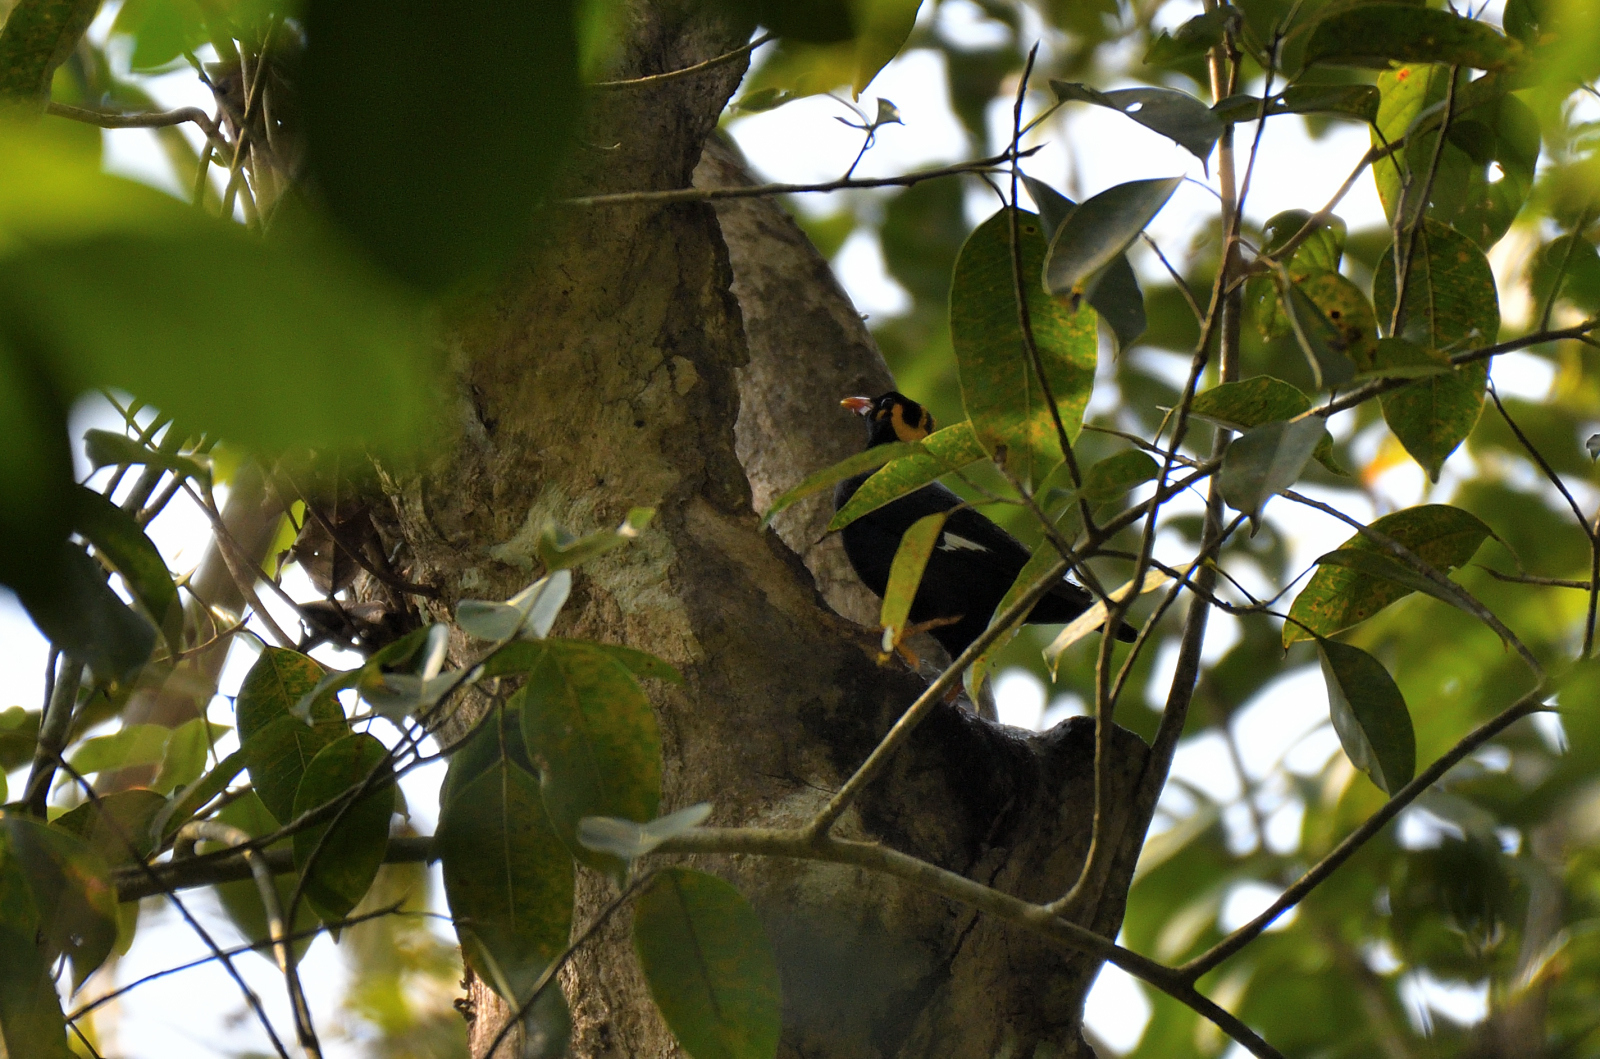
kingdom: Animalia
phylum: Chordata
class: Aves
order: Passeriformes
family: Sturnidae
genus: Gracula
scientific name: Gracula indica
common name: Southern hill myna
